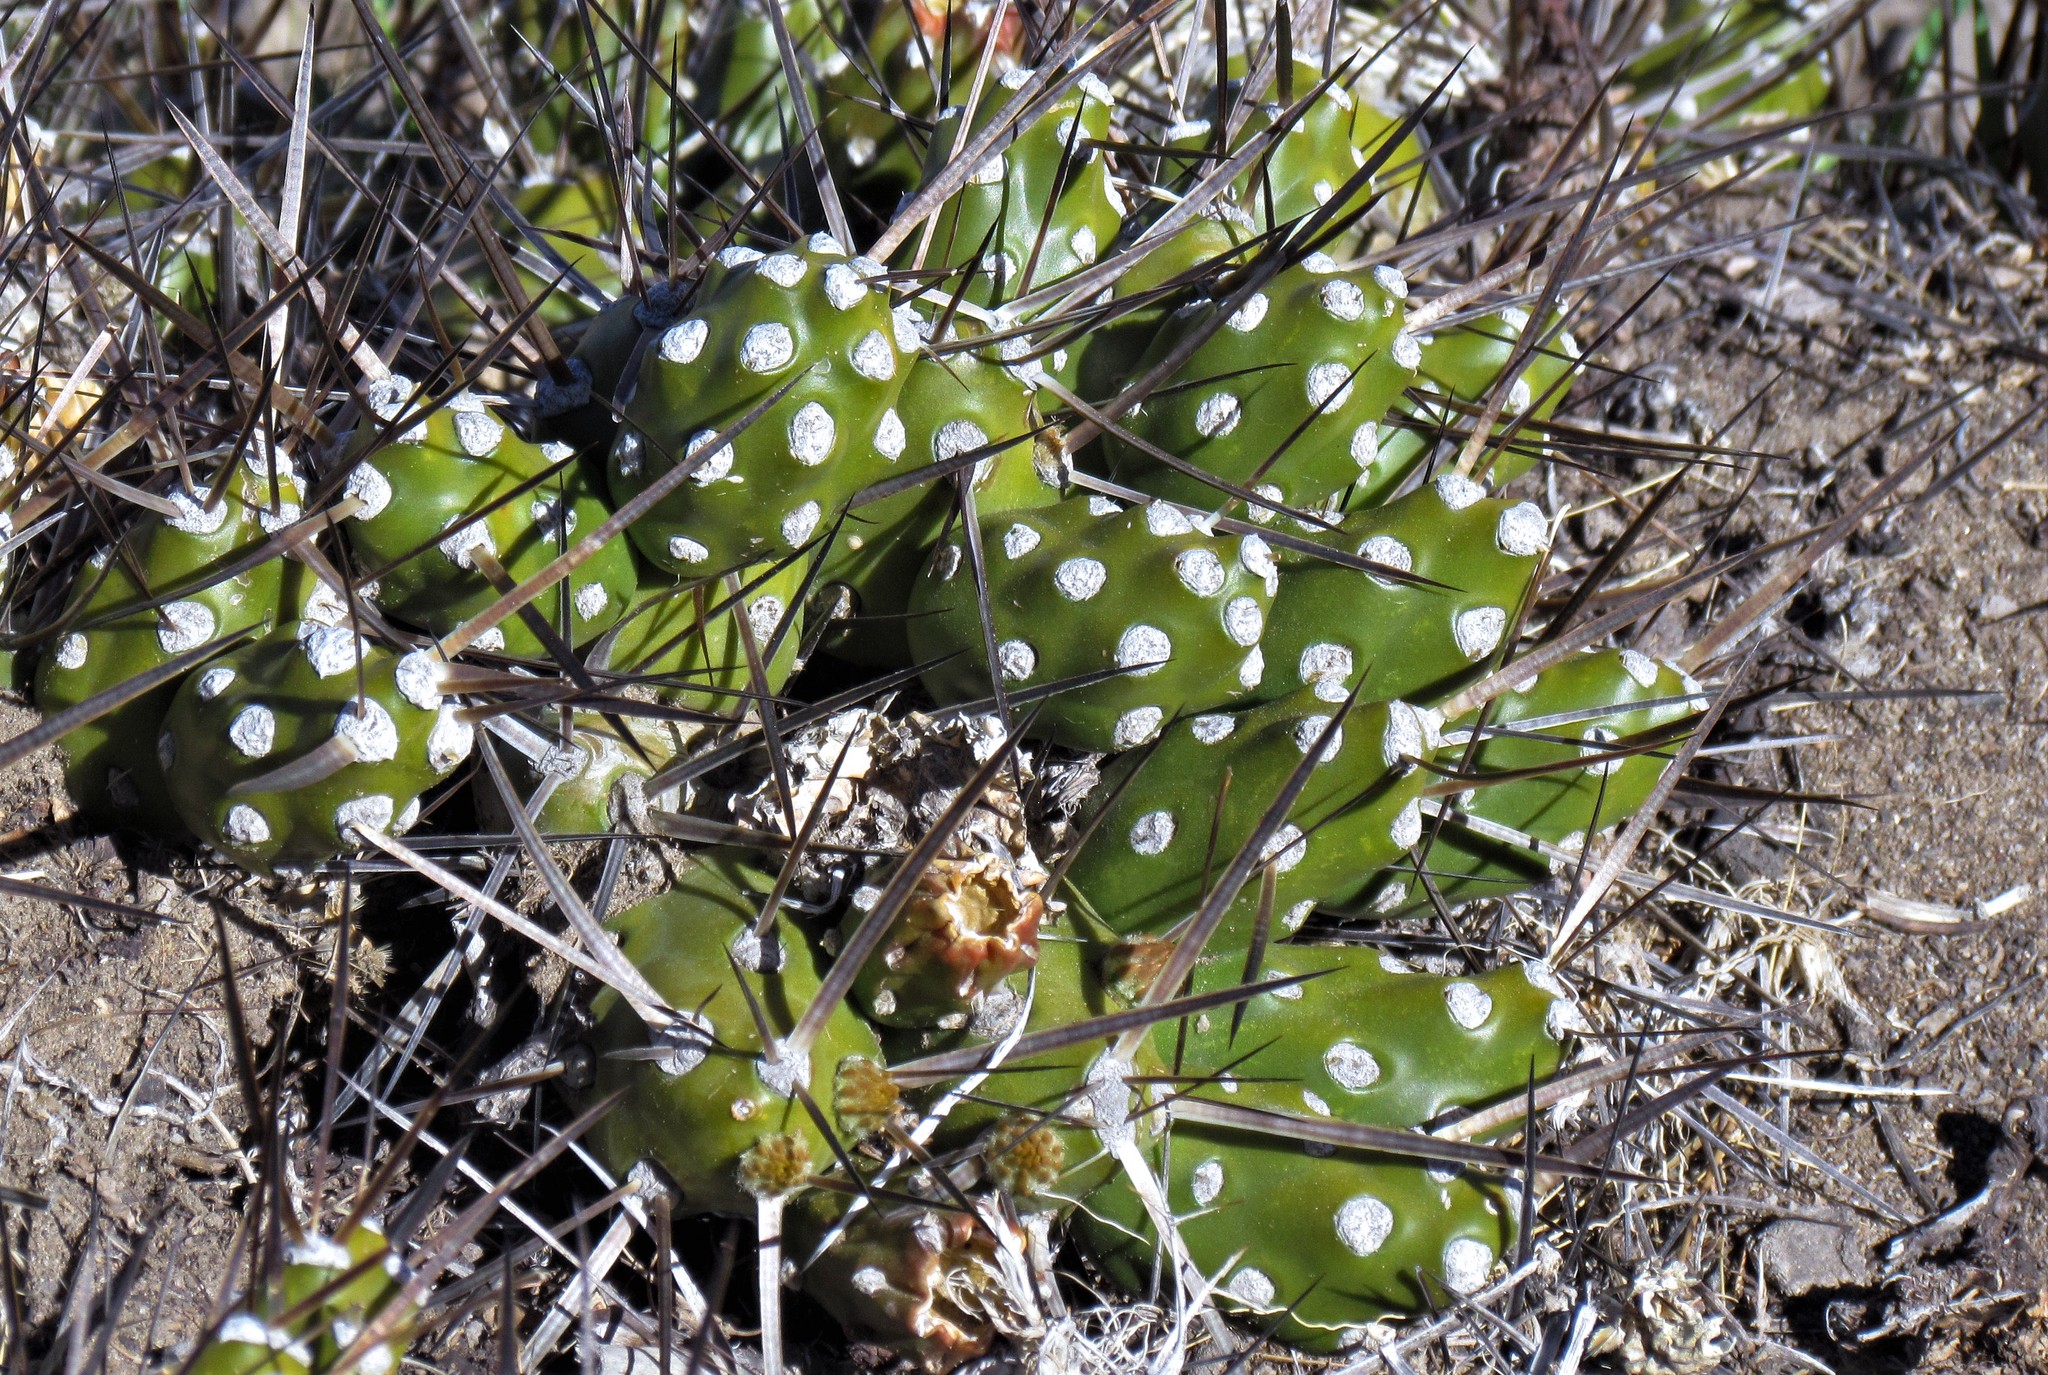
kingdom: Plantae
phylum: Tracheophyta
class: Magnoliopsida
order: Caryophyllales
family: Cactaceae
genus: Maihueniopsis
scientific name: Maihueniopsis hickenii
